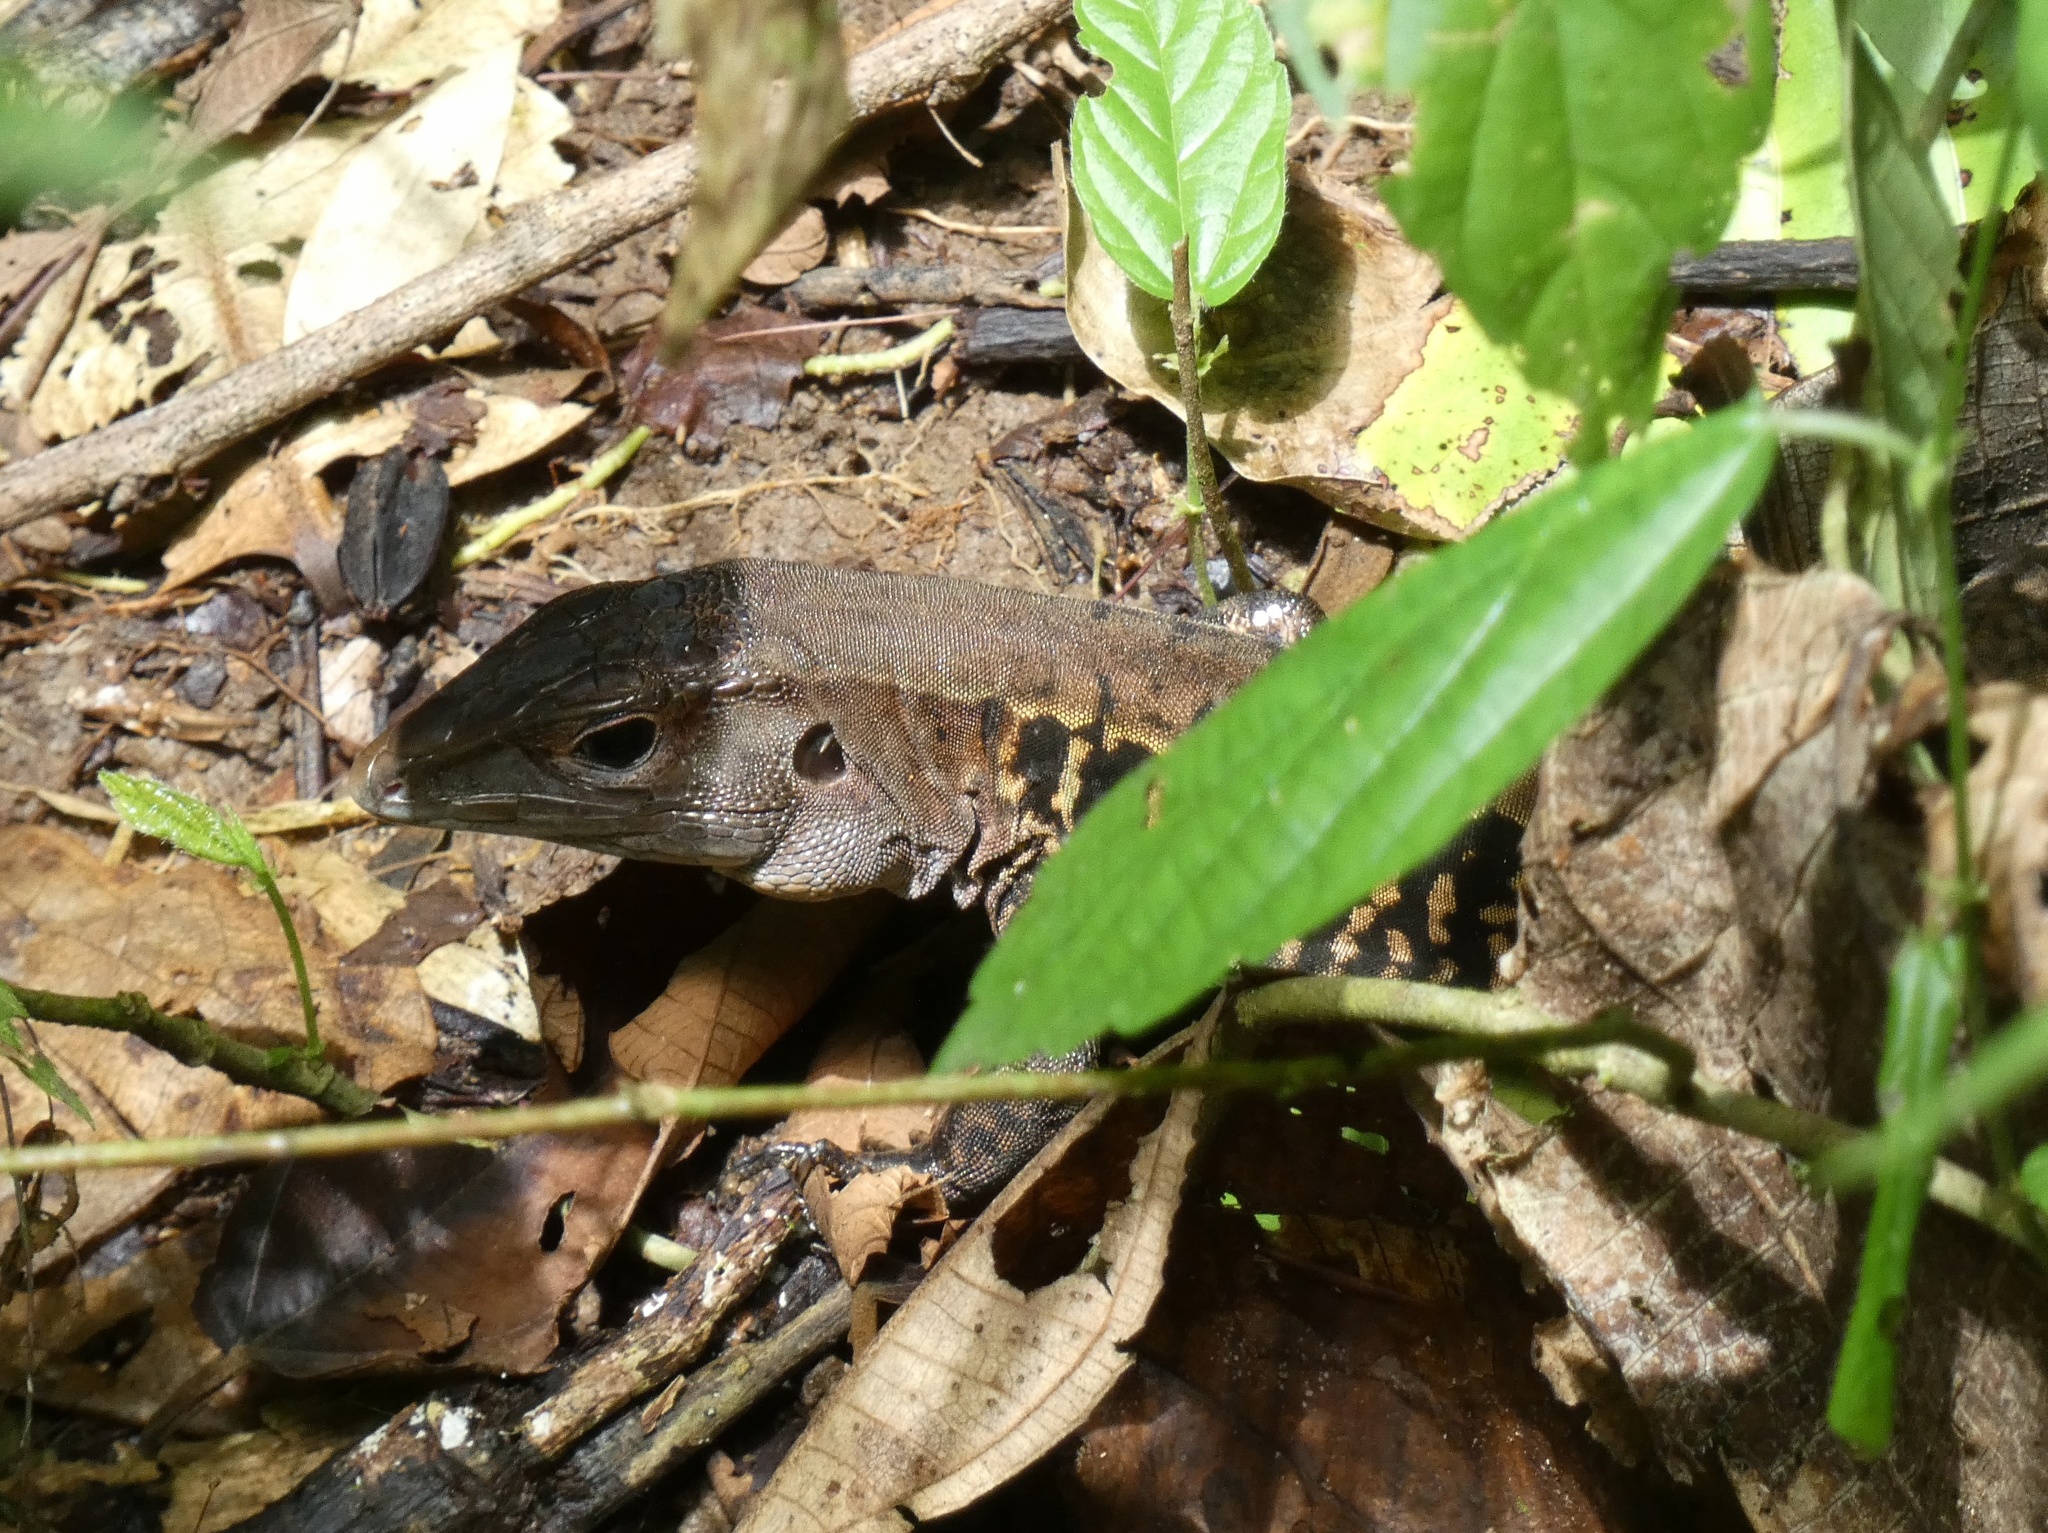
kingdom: Animalia
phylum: Chordata
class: Squamata
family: Teiidae
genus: Holcosus
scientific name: Holcosus leptophrys
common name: Delicate ameiva
